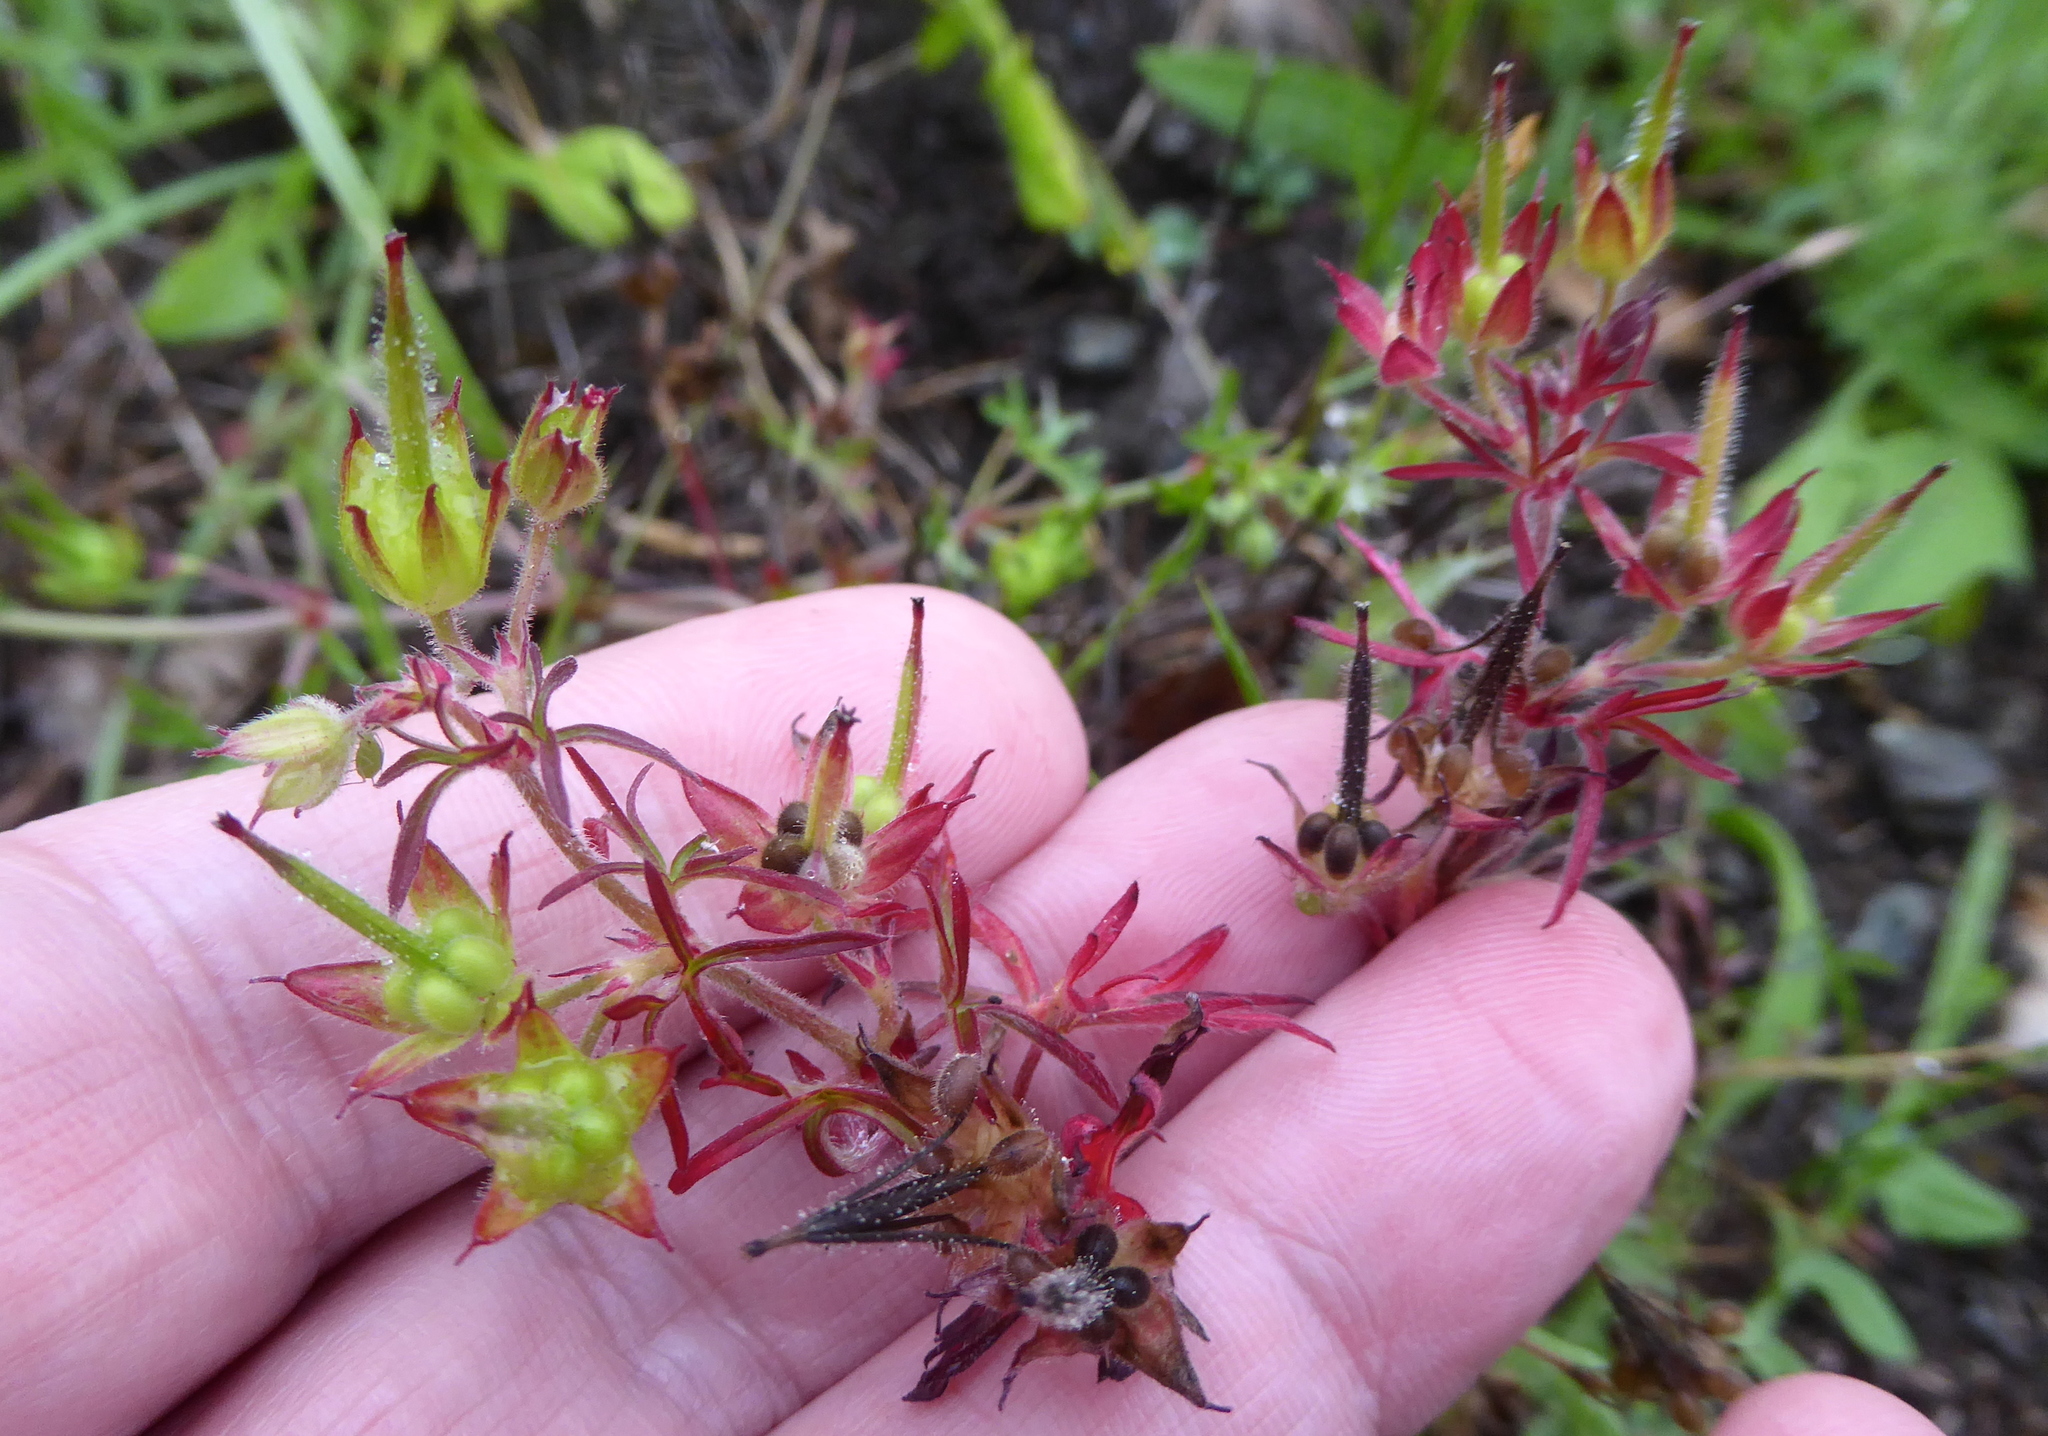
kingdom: Plantae
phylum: Tracheophyta
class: Magnoliopsida
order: Geraniales
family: Geraniaceae
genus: Geranium
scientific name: Geranium dissectum
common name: Cut-leaved crane's-bill
